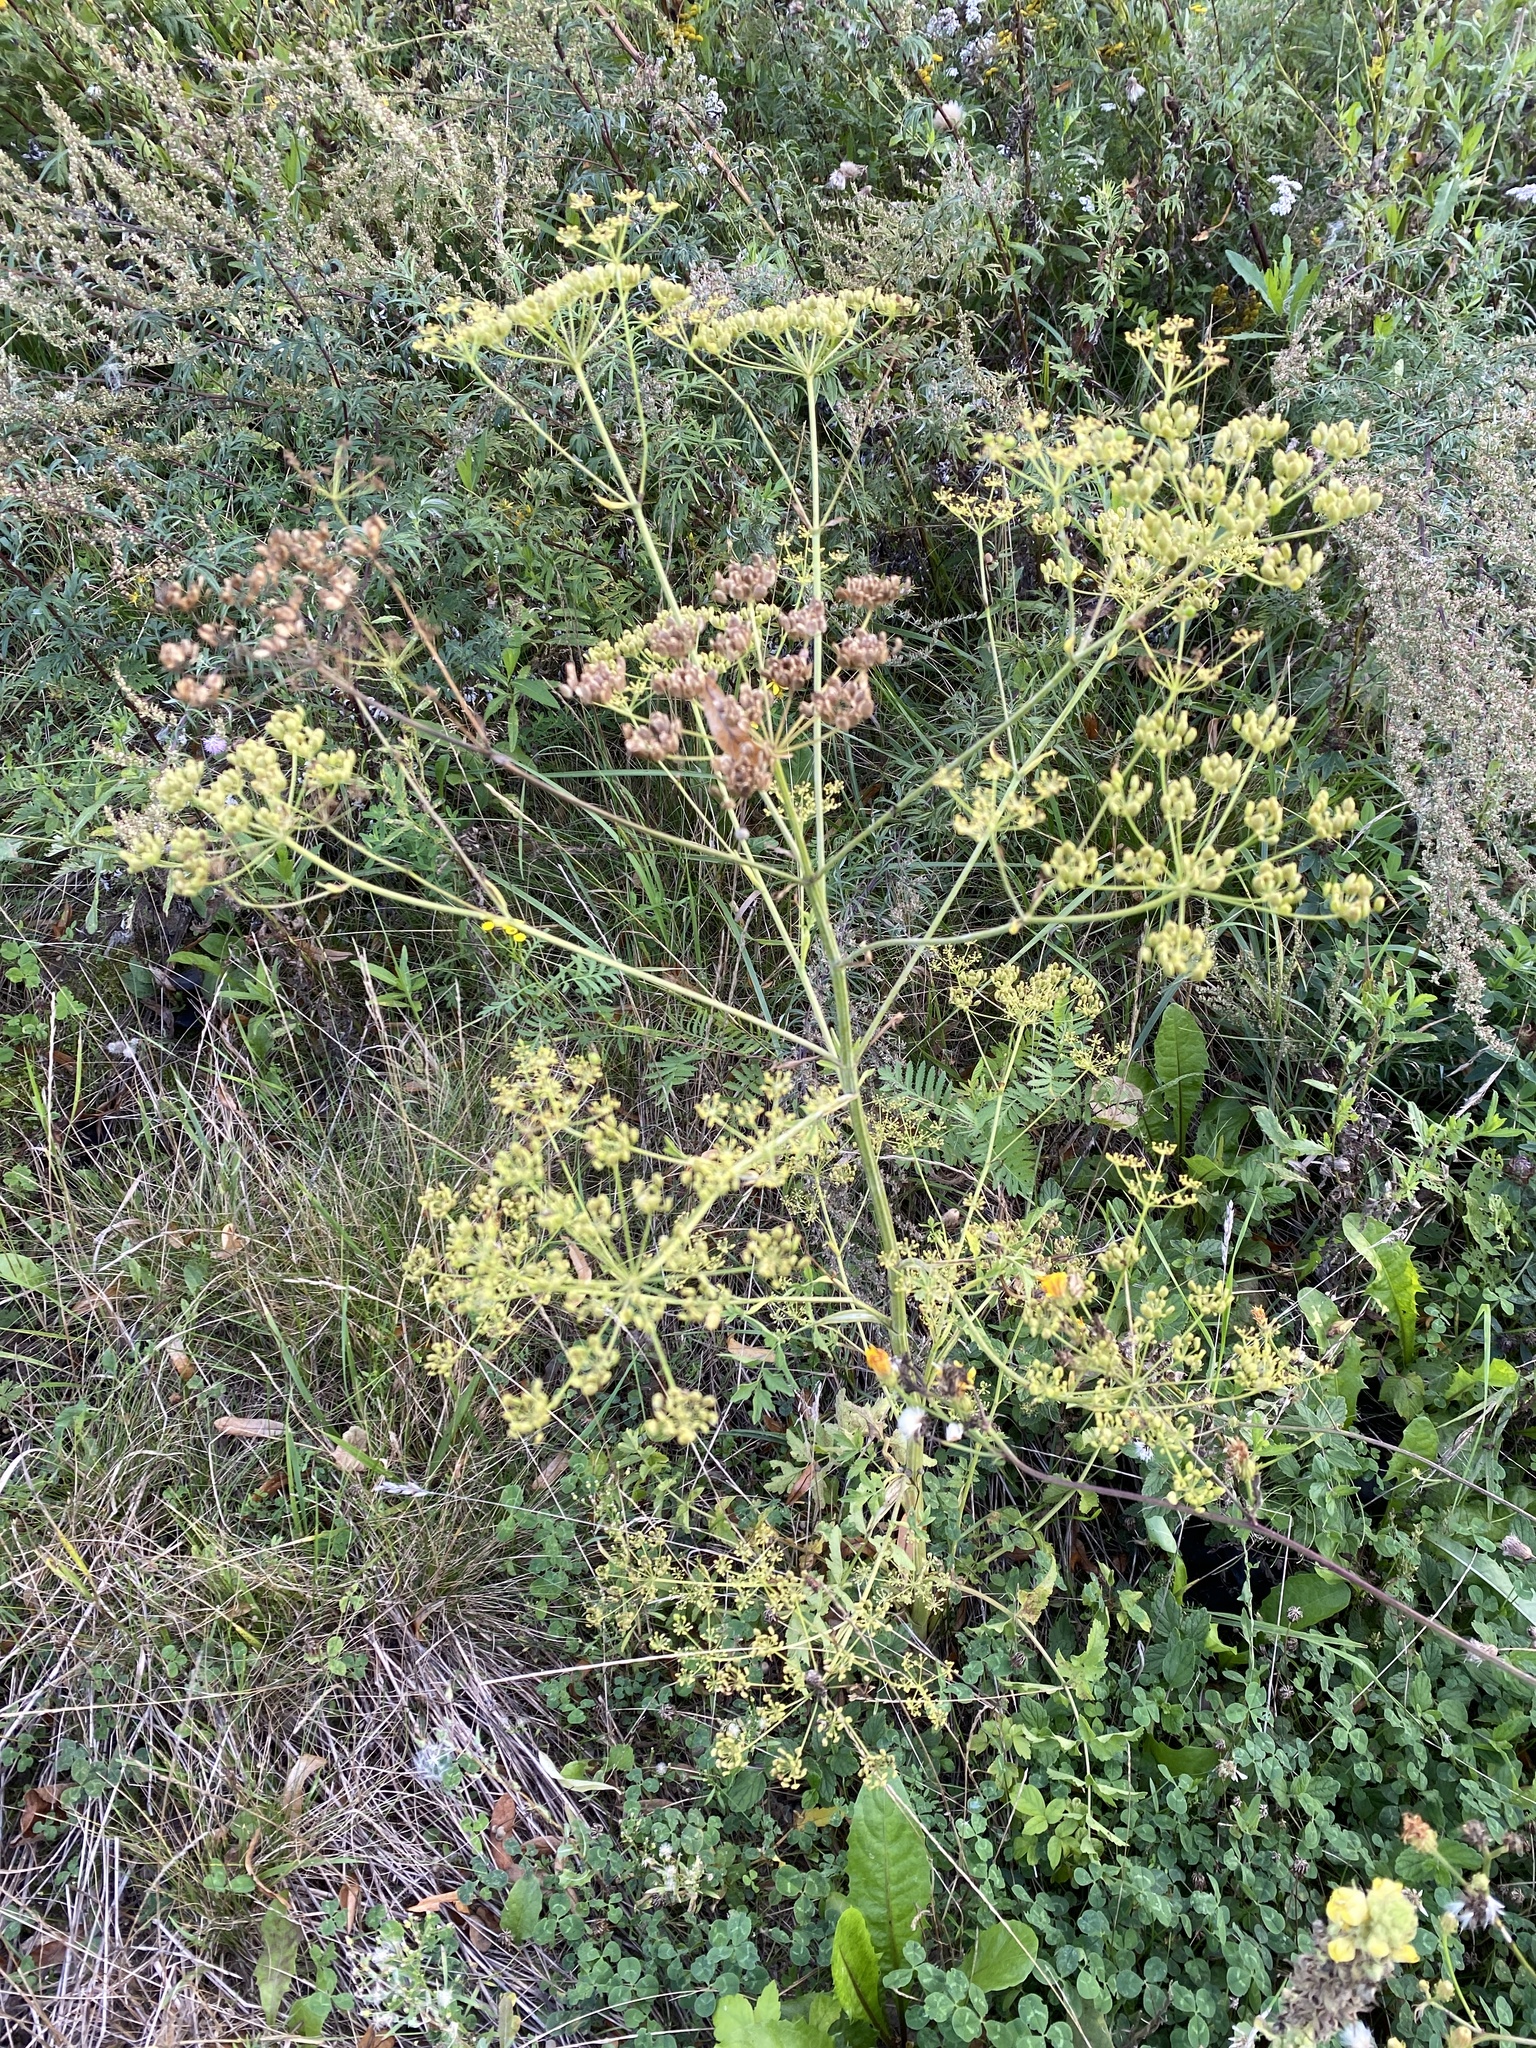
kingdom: Plantae
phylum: Tracheophyta
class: Magnoliopsida
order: Apiales
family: Apiaceae
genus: Pastinaca
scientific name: Pastinaca sativa
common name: Wild parsnip
